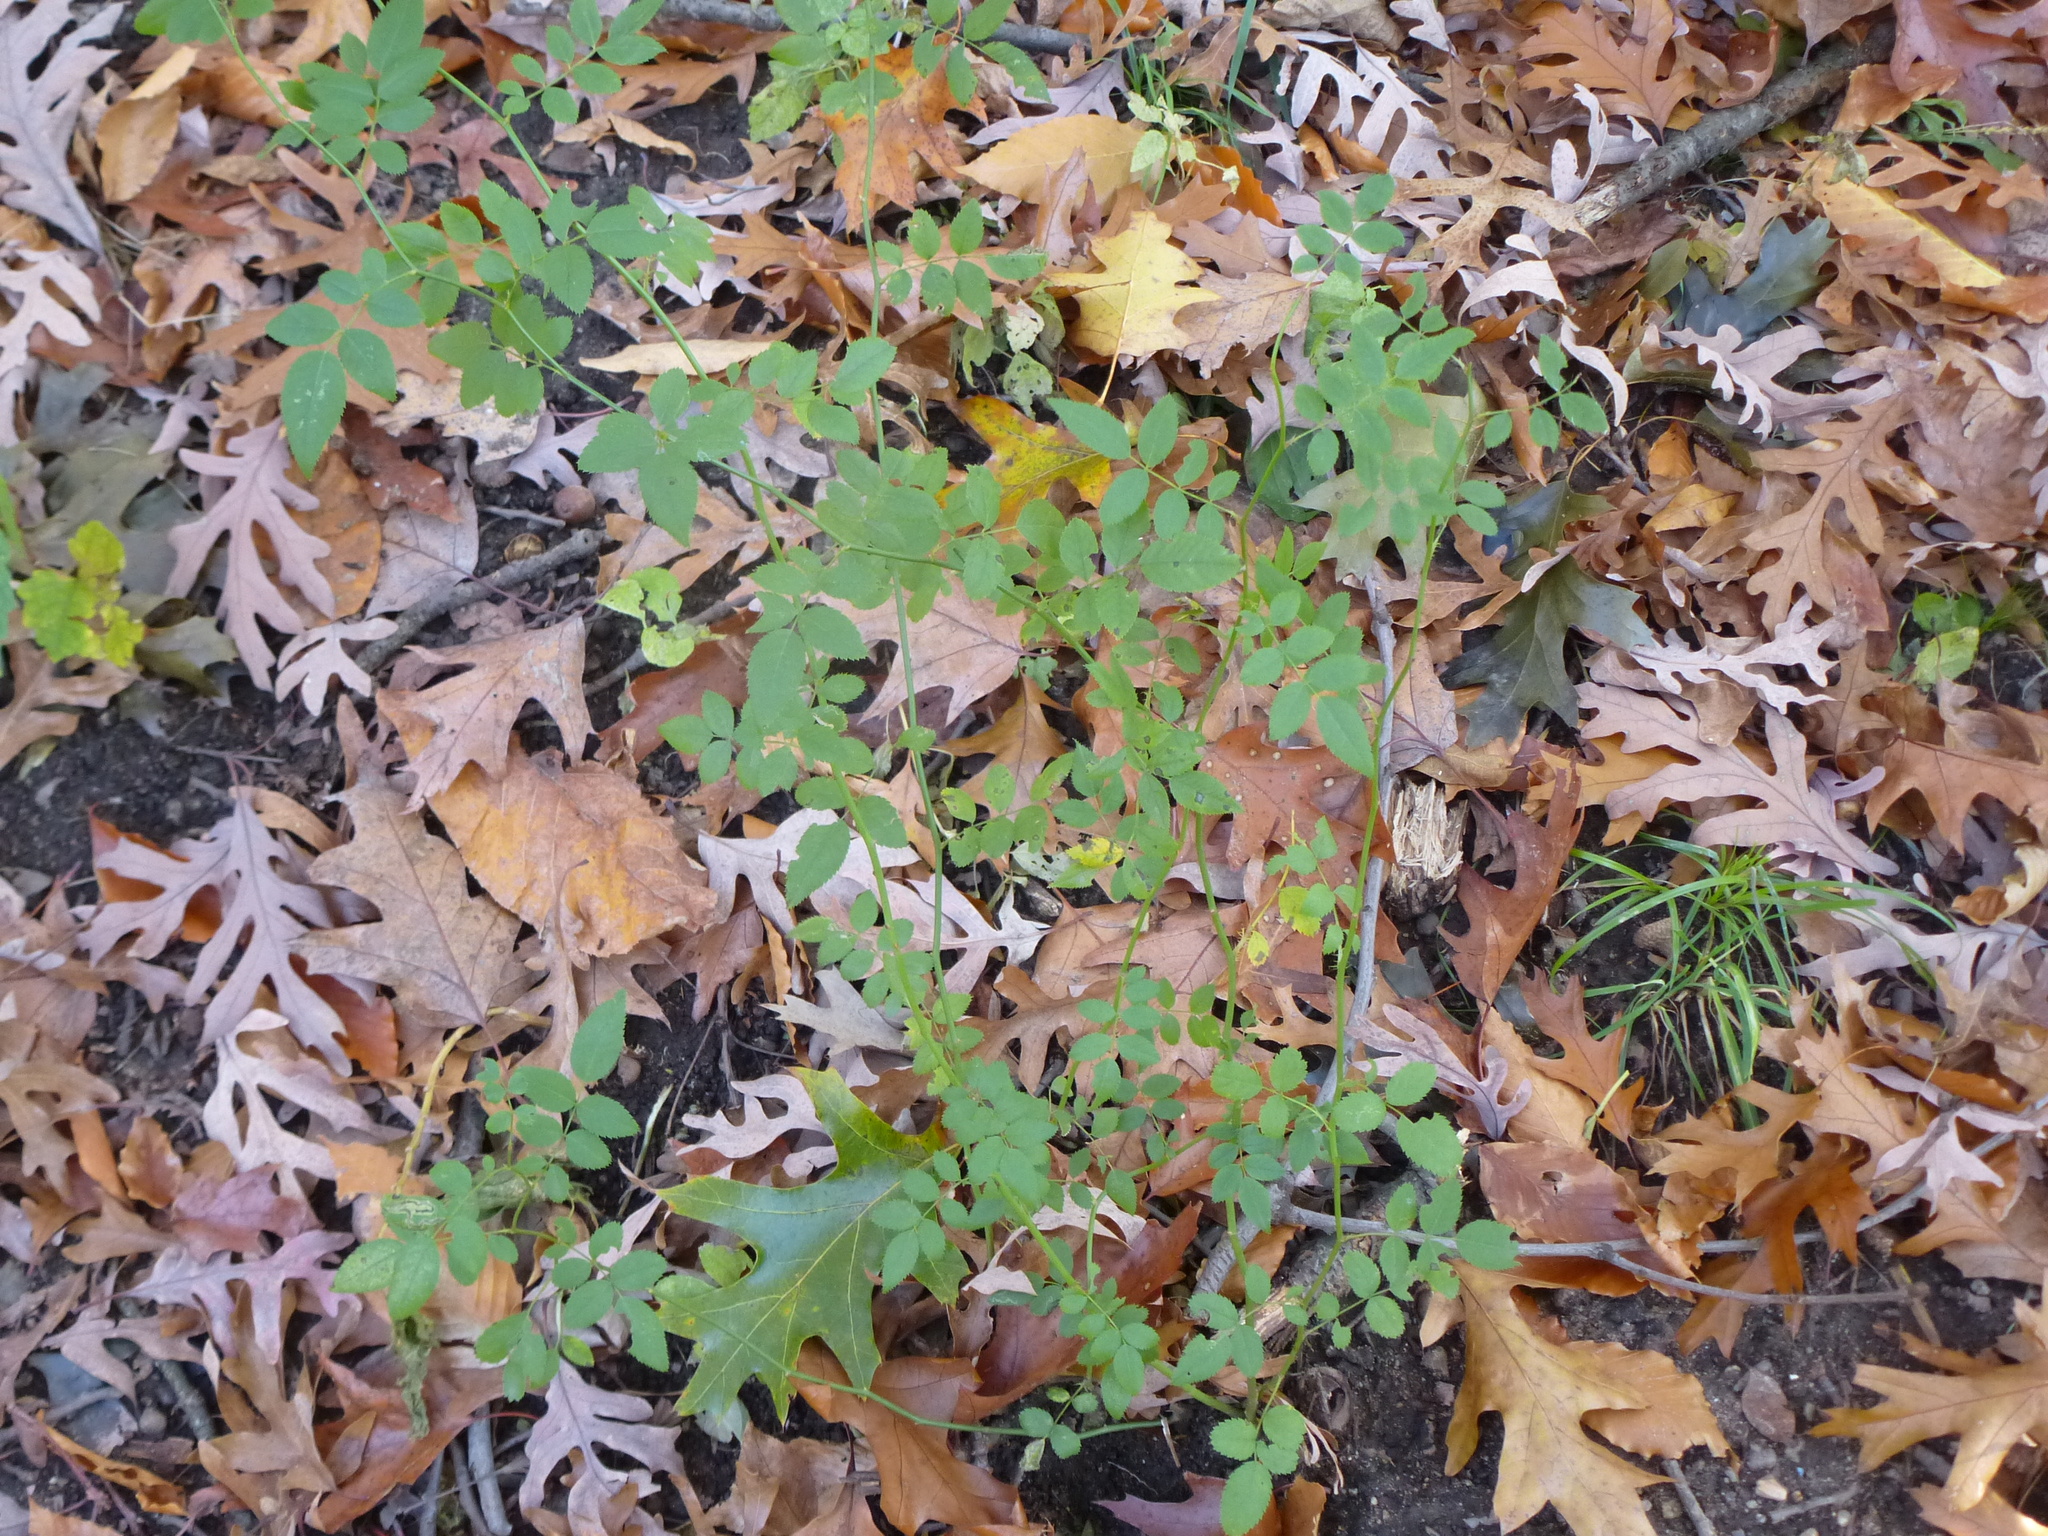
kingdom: Plantae
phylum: Tracheophyta
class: Magnoliopsida
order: Rosales
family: Rosaceae
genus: Rosa
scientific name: Rosa multiflora
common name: Multiflora rose
